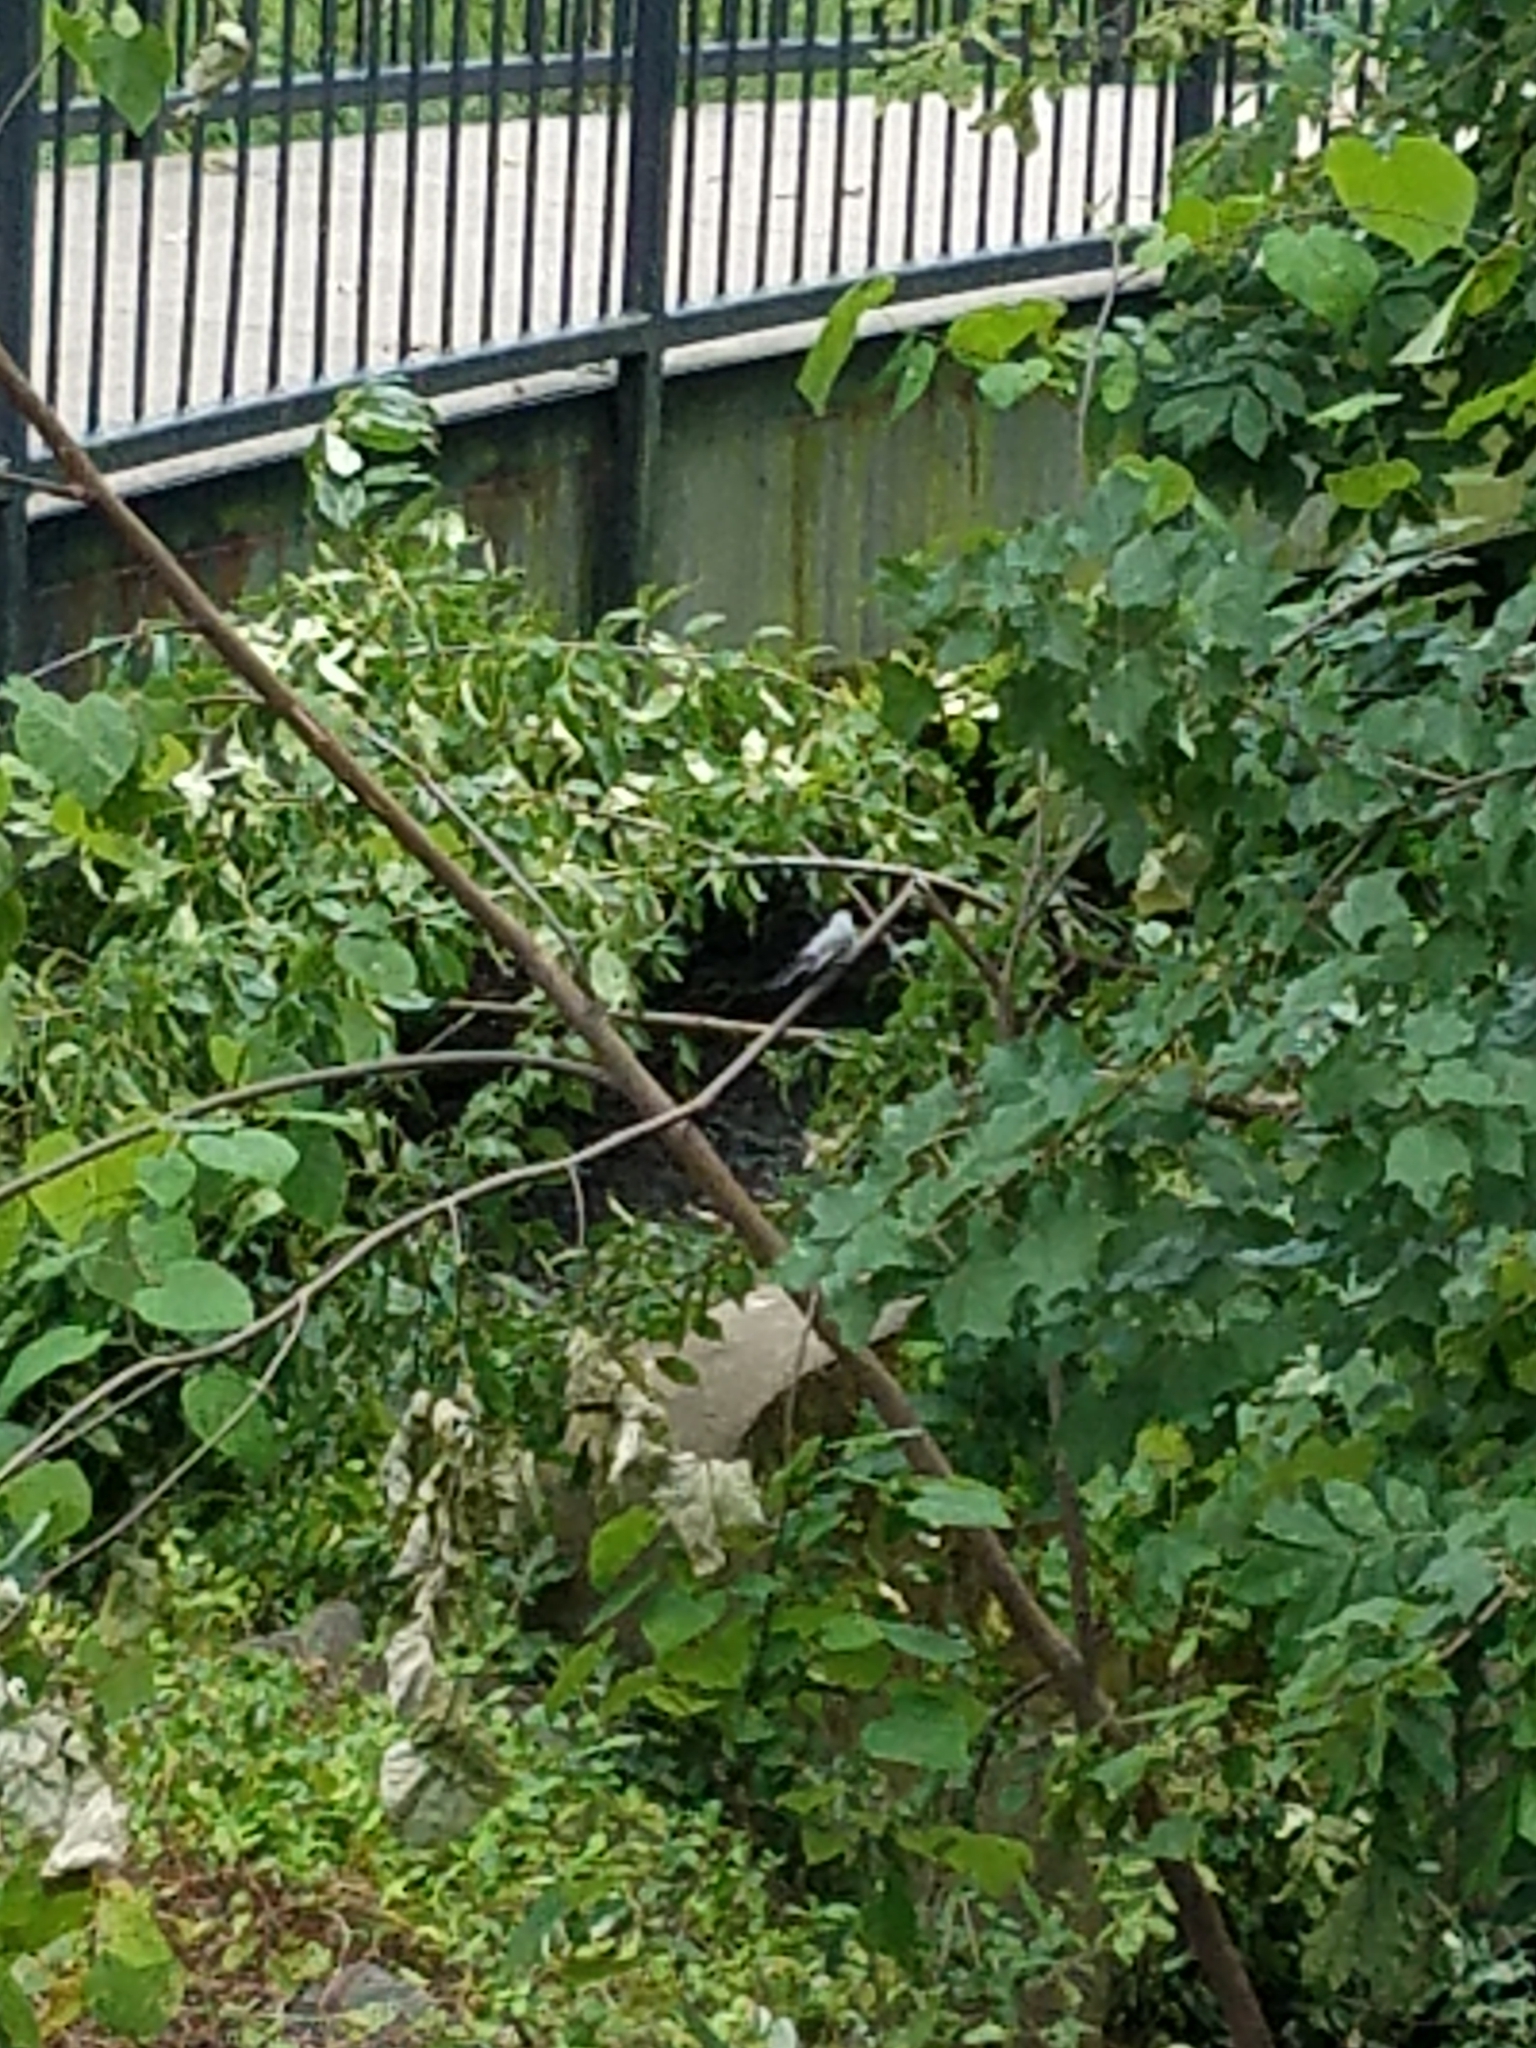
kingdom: Animalia
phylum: Chordata
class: Aves
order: Passeriformes
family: Polioptilidae
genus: Polioptila
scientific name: Polioptila caerulea
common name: Blue-gray gnatcatcher
